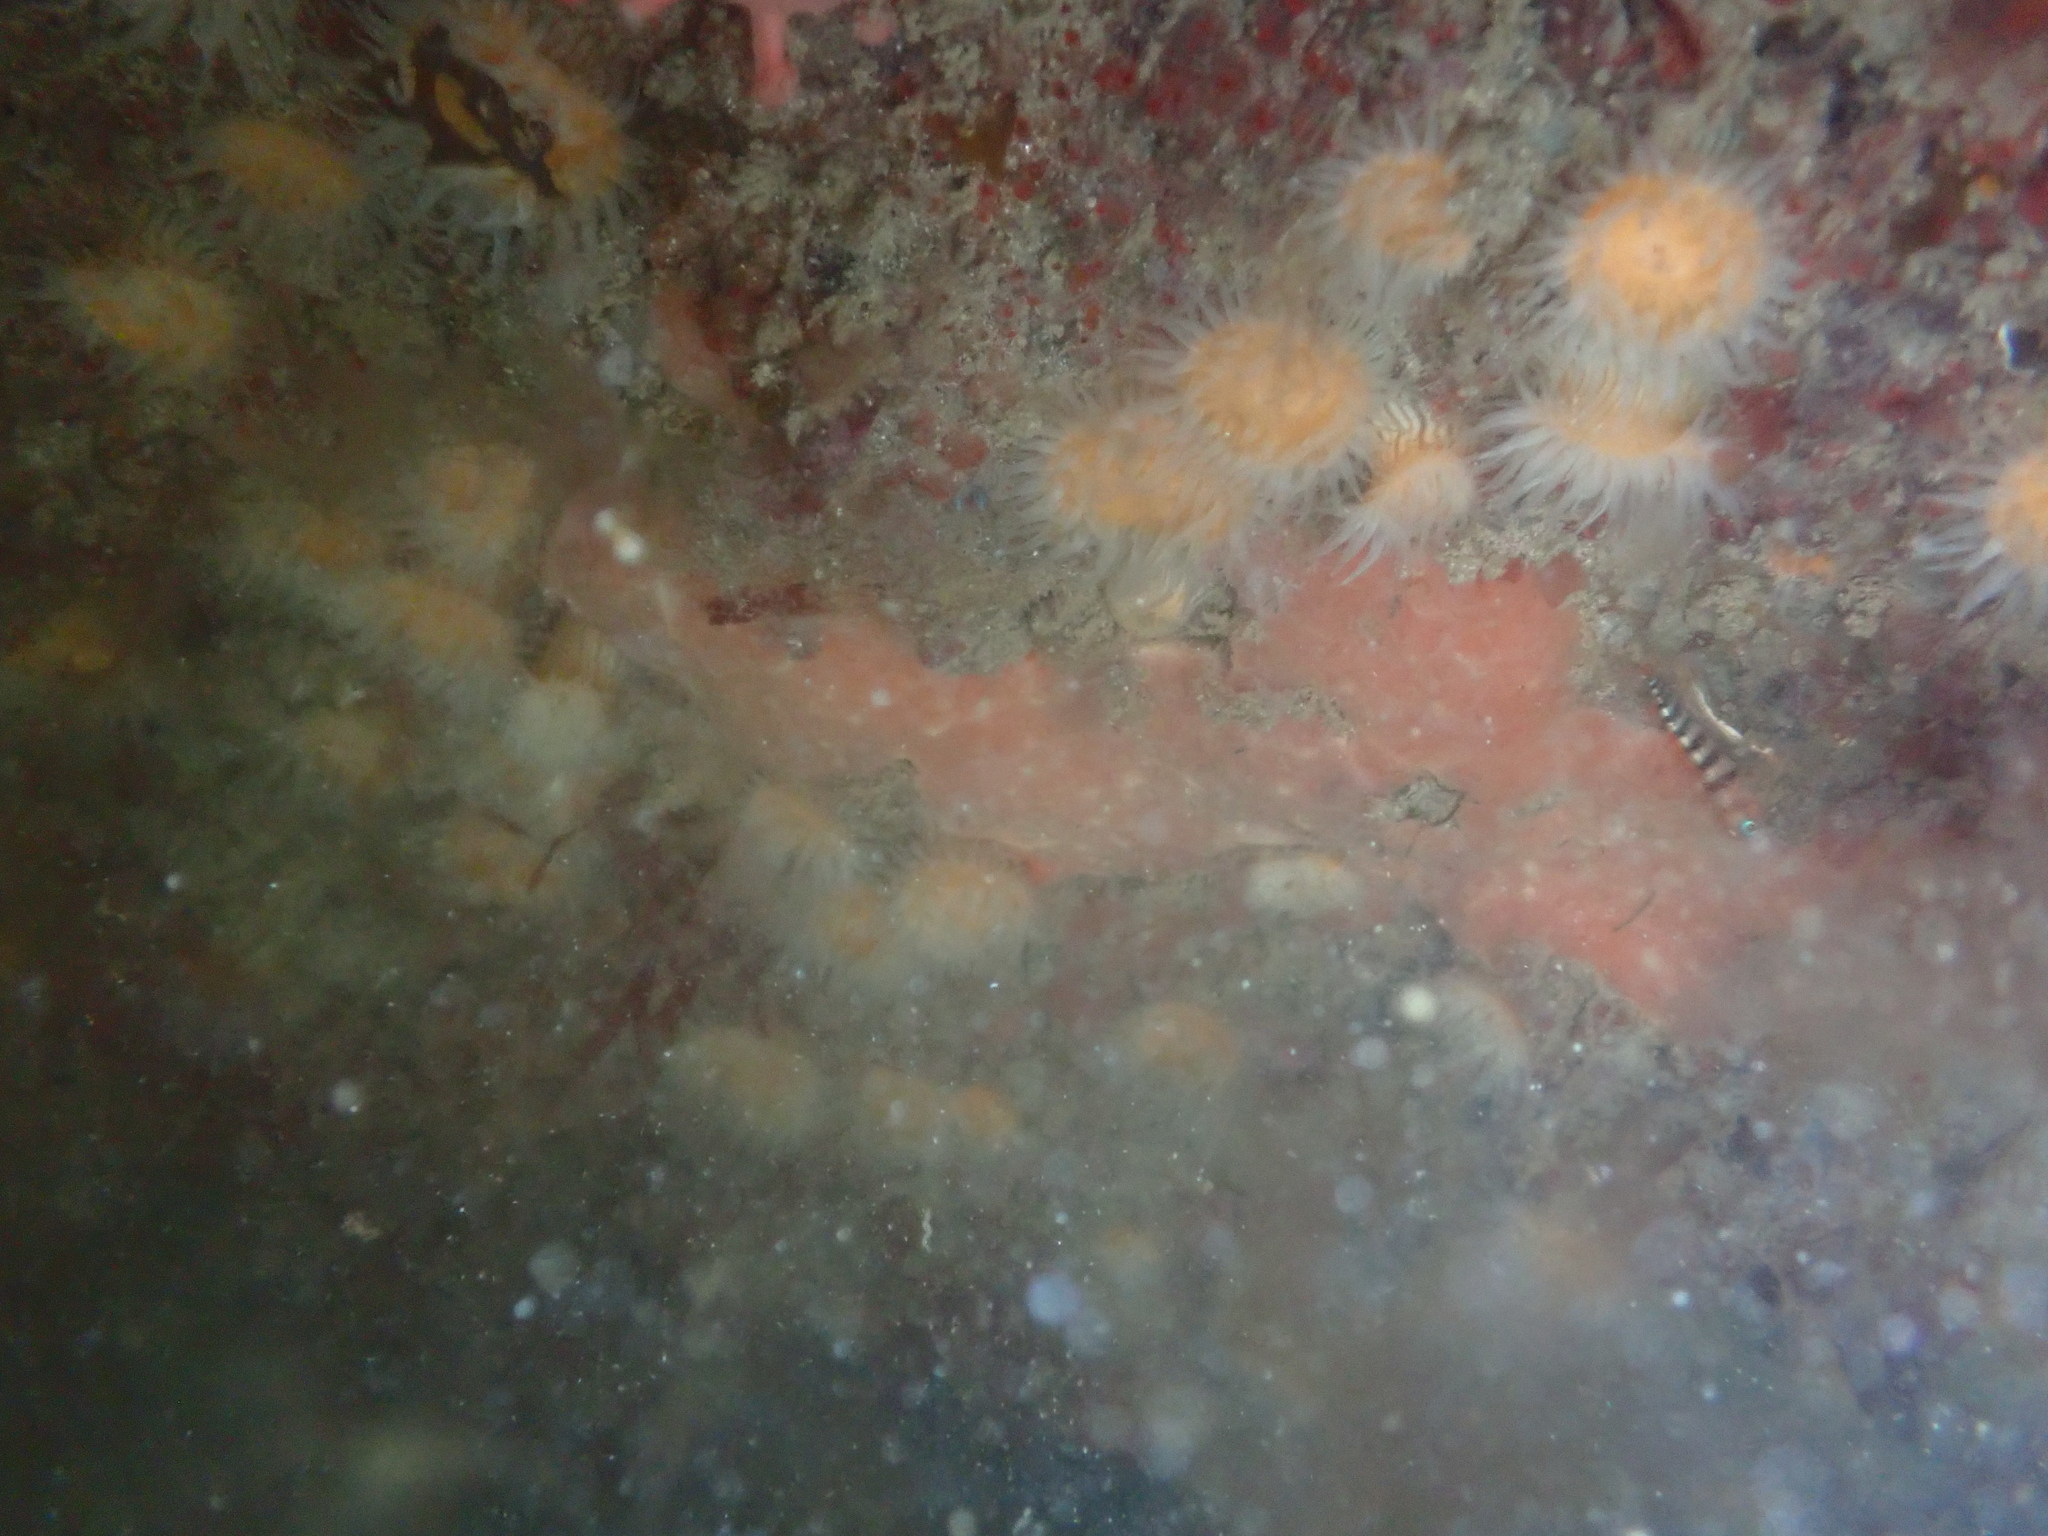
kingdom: Animalia
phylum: Chordata
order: Perciformes
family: Tripterygiidae
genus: Notoclinops
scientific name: Notoclinops segmentatus
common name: Blue-eyed triplefin
